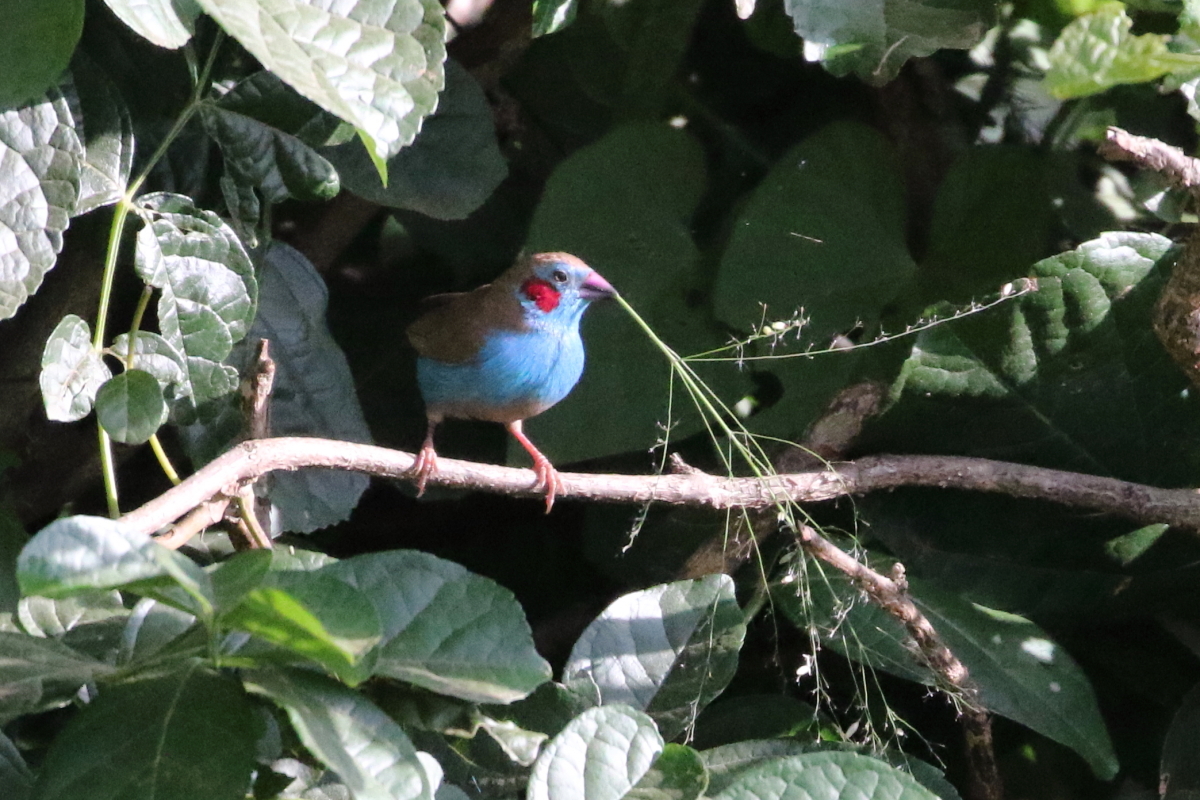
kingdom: Animalia
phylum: Chordata
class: Aves
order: Passeriformes
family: Estrildidae
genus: Uraeginthus
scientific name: Uraeginthus bengalus
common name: Red-cheeked cordon-bleu
